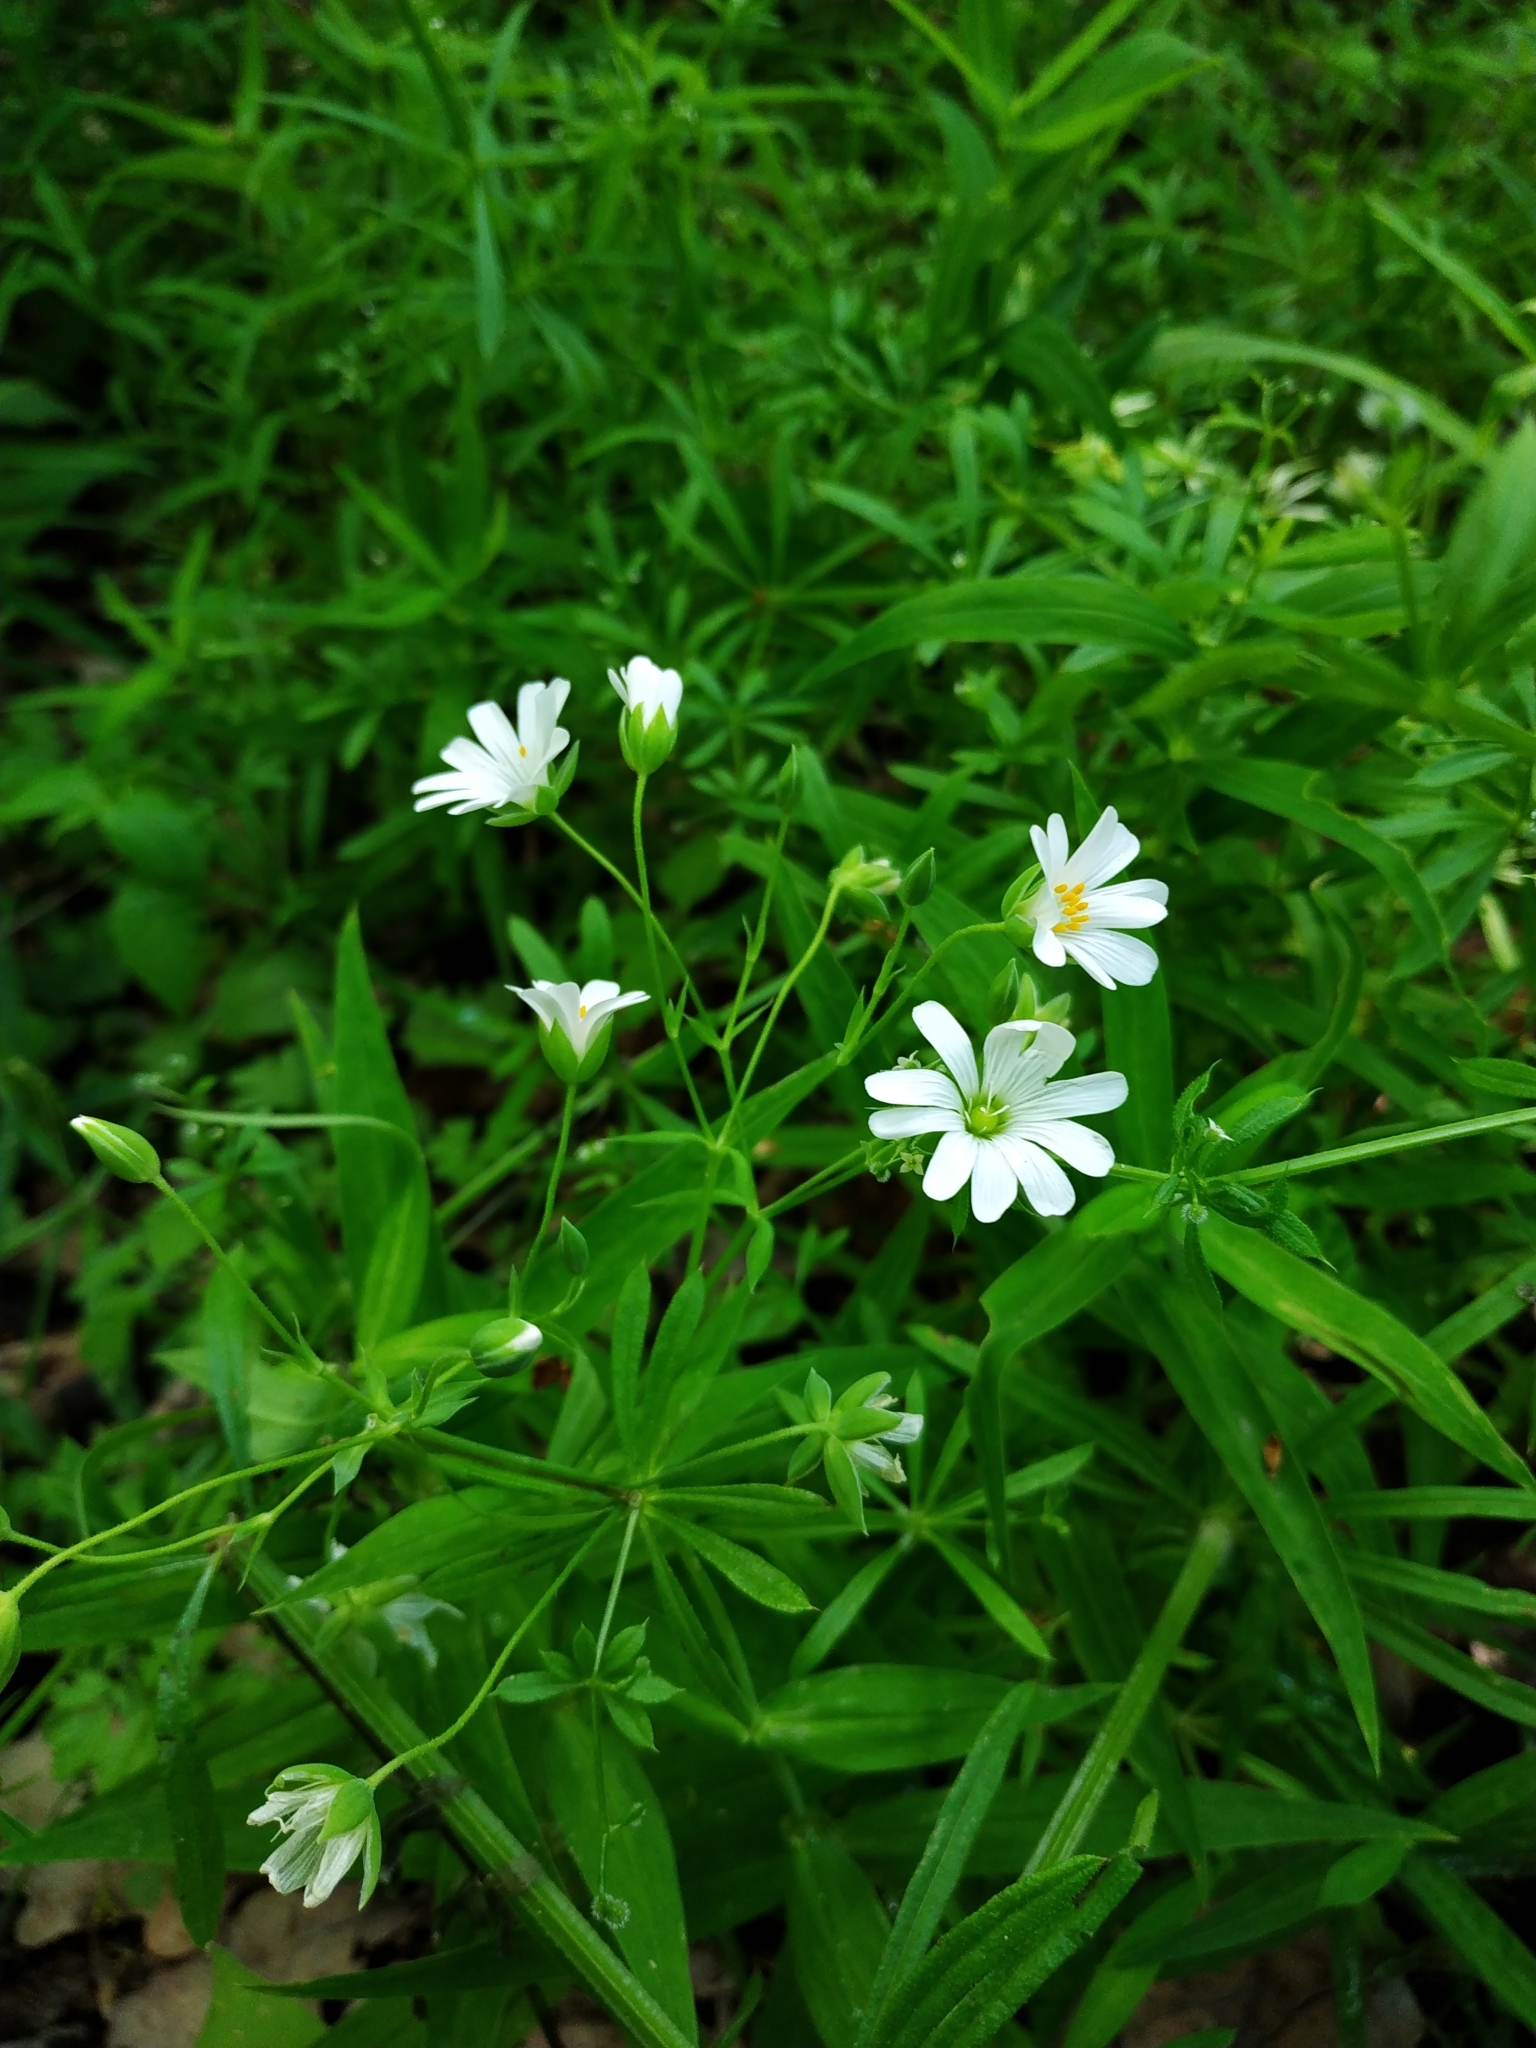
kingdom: Plantae
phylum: Tracheophyta
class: Magnoliopsida
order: Caryophyllales
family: Caryophyllaceae
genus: Rabelera
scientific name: Rabelera holostea
